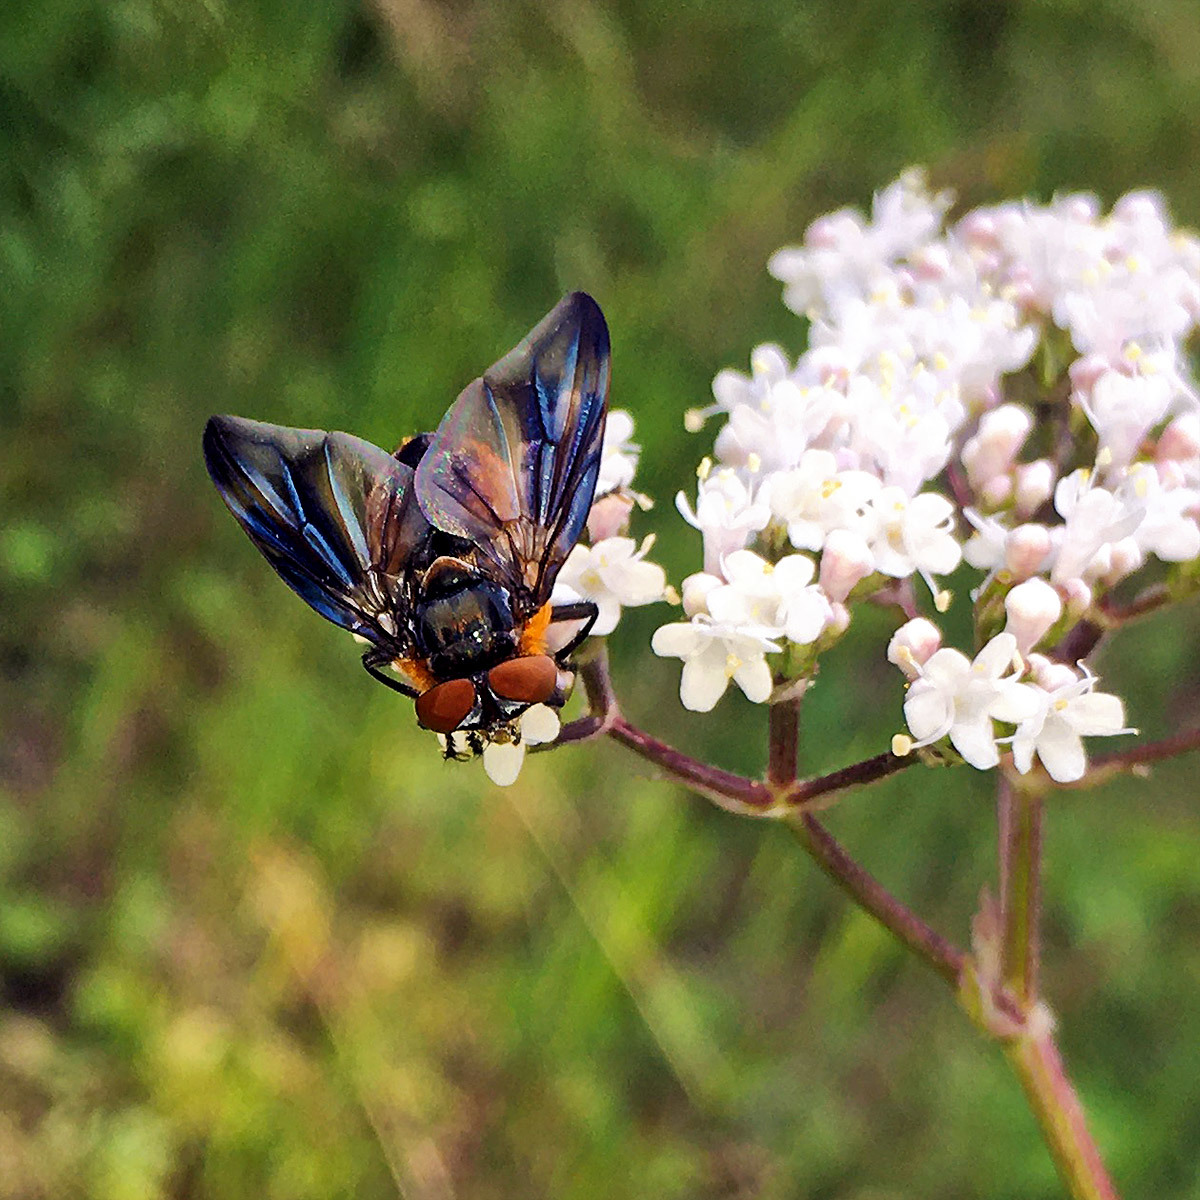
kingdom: Animalia
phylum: Arthropoda
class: Insecta
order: Diptera
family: Tachinidae
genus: Phasia
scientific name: Phasia hemiptera
